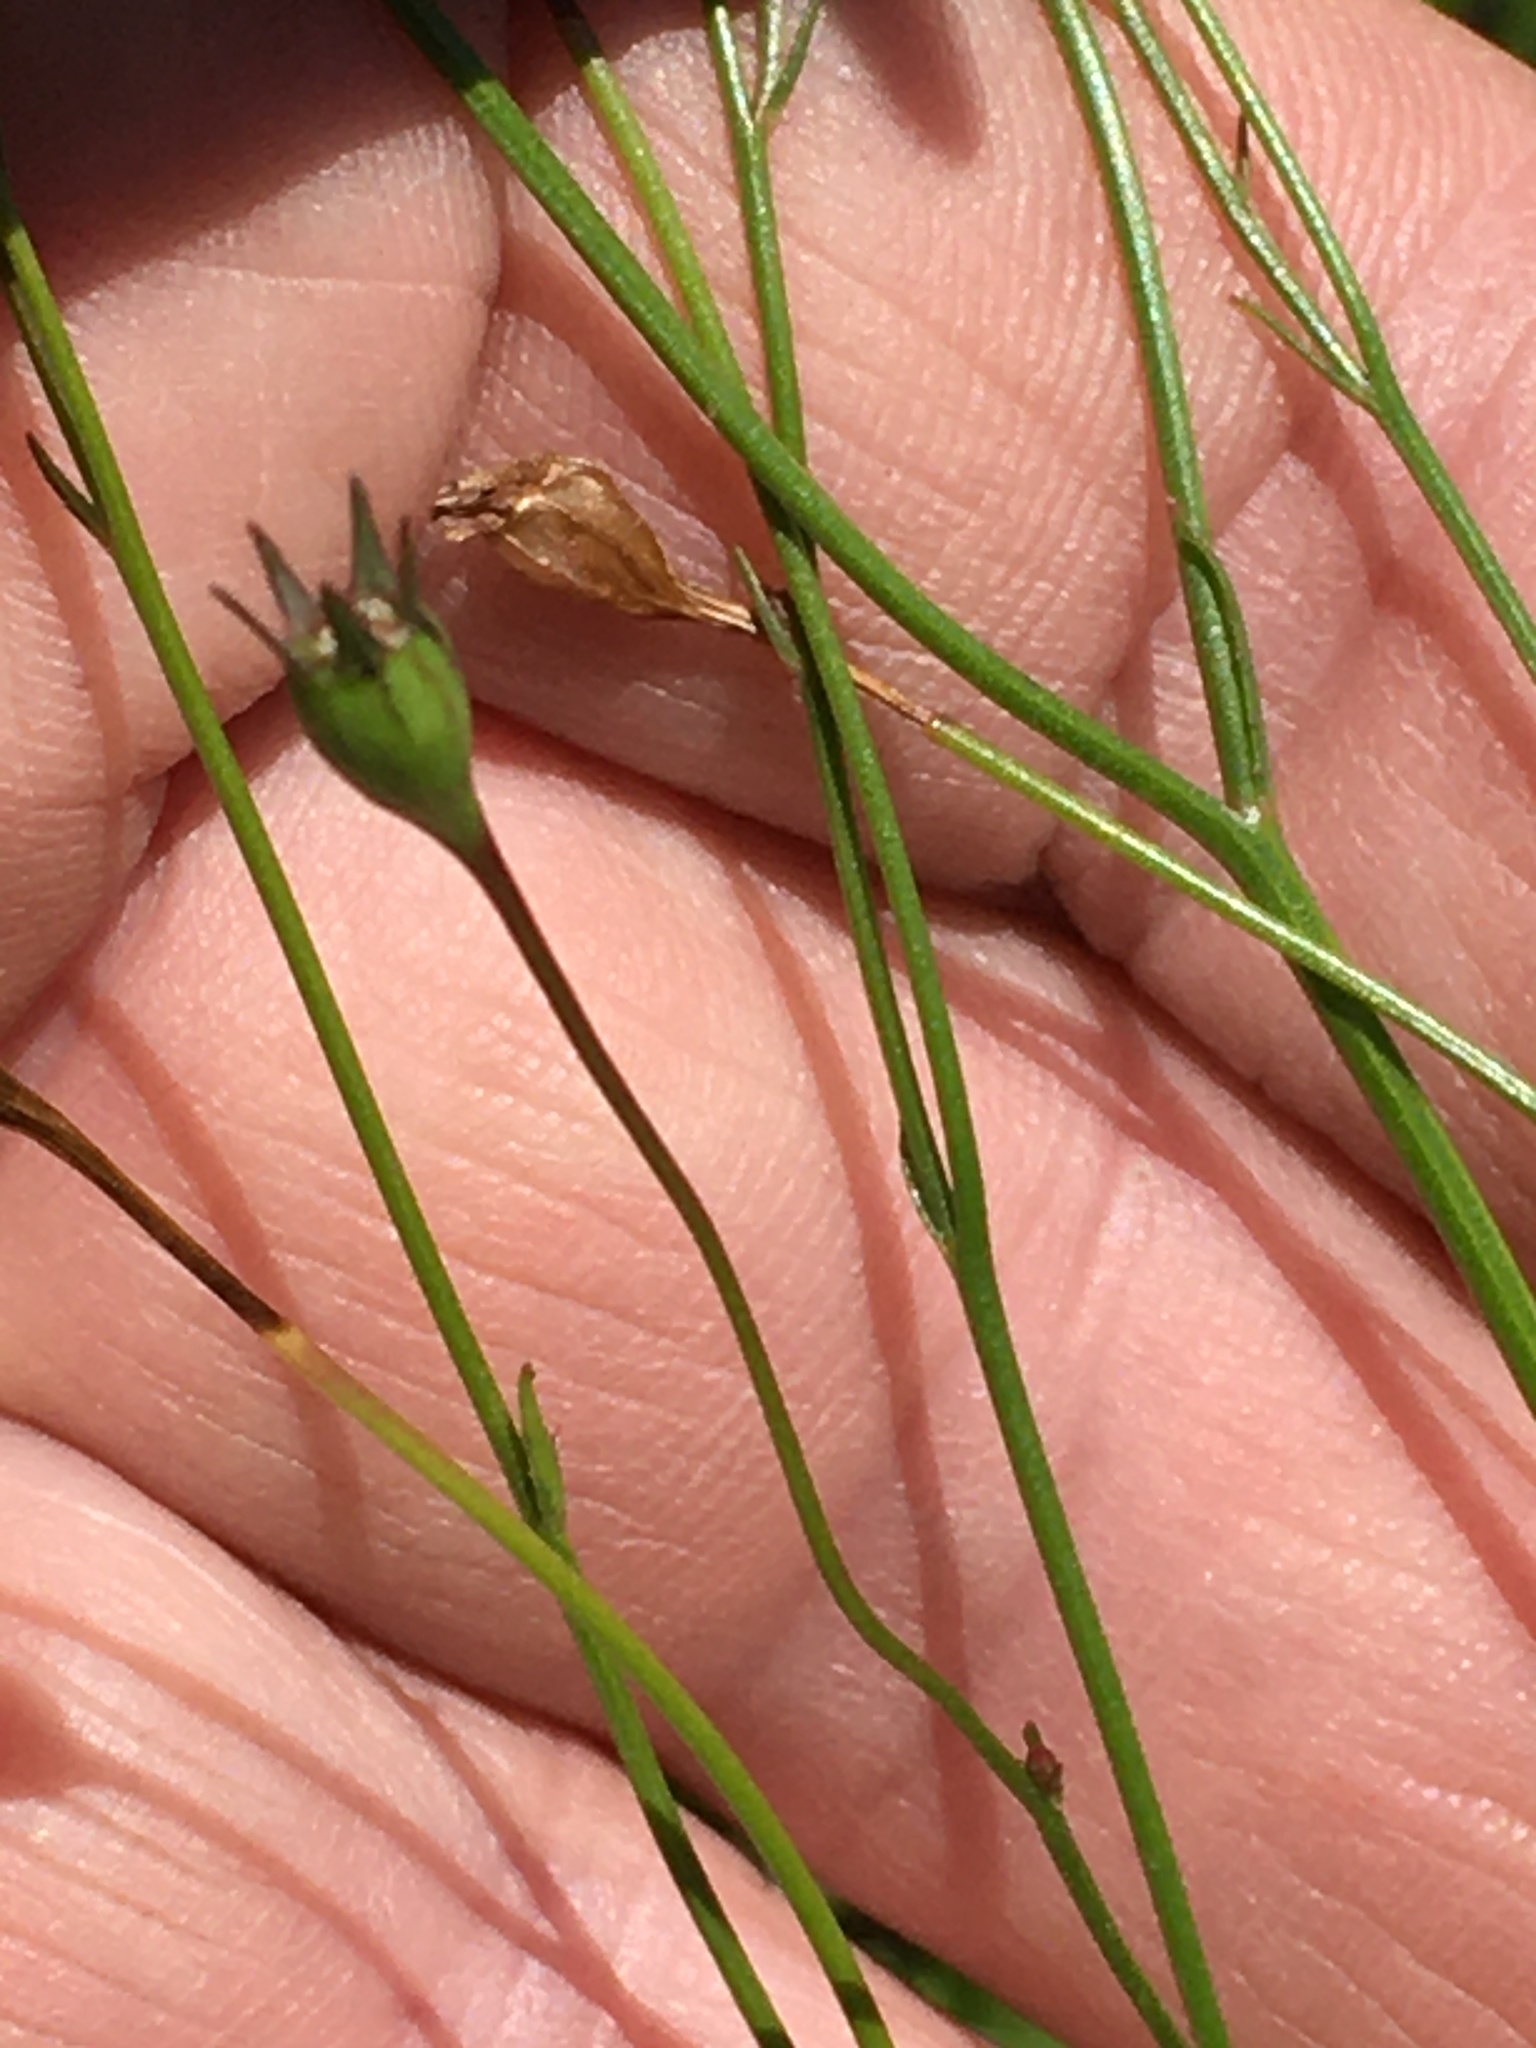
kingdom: Plantae
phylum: Tracheophyta
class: Magnoliopsida
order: Asterales
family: Campanulaceae
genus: Wahlenbergia
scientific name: Wahlenbergia marginata
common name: Southern rockbell
